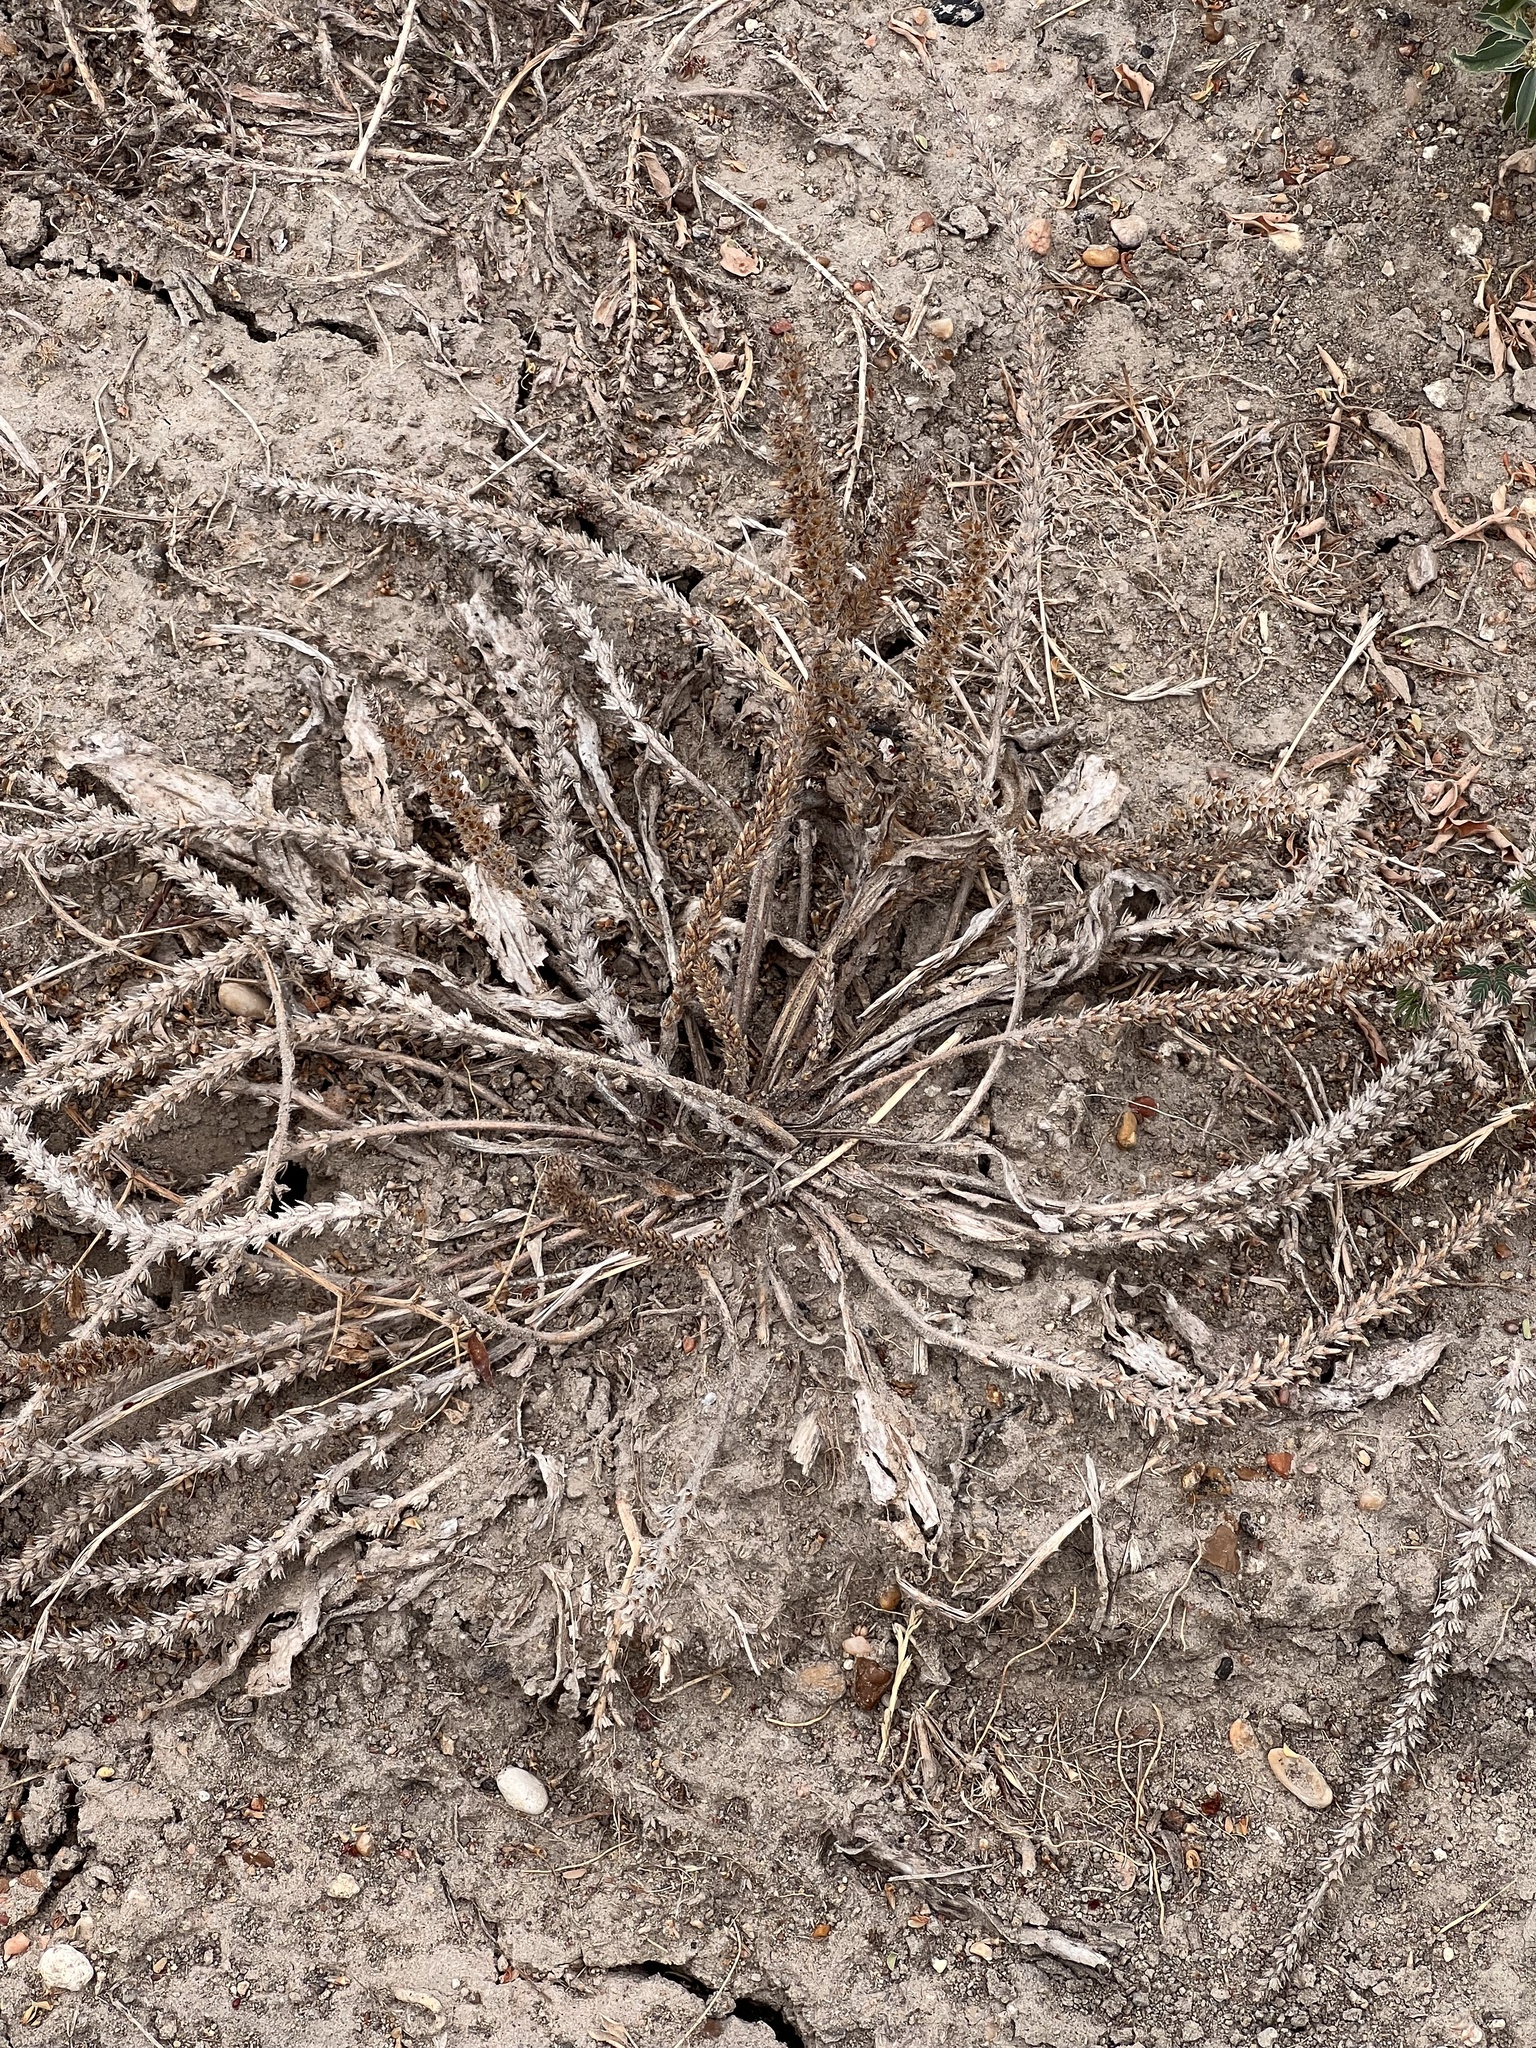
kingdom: Plantae
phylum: Tracheophyta
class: Magnoliopsida
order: Lamiales
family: Plantaginaceae
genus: Plantago
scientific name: Plantago rhodosperma
